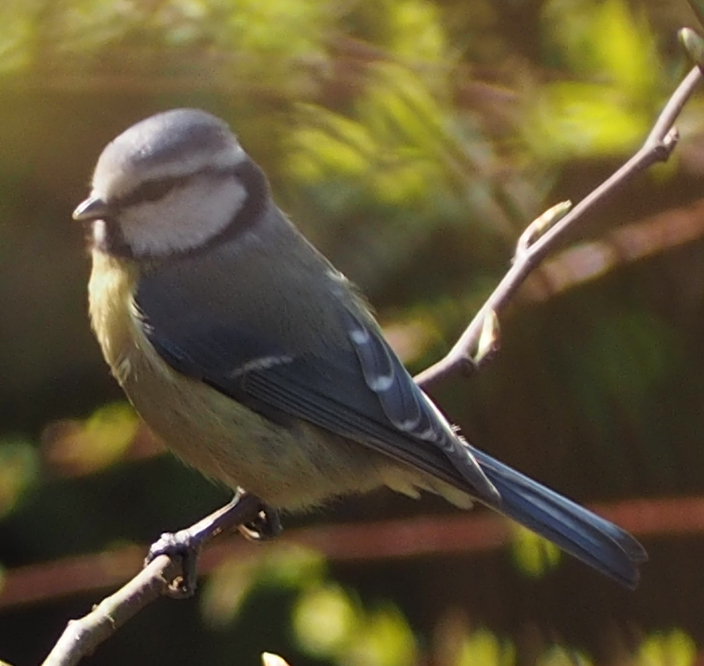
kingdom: Animalia
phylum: Chordata
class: Aves
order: Passeriformes
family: Paridae
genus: Cyanistes
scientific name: Cyanistes caeruleus
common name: Eurasian blue tit
